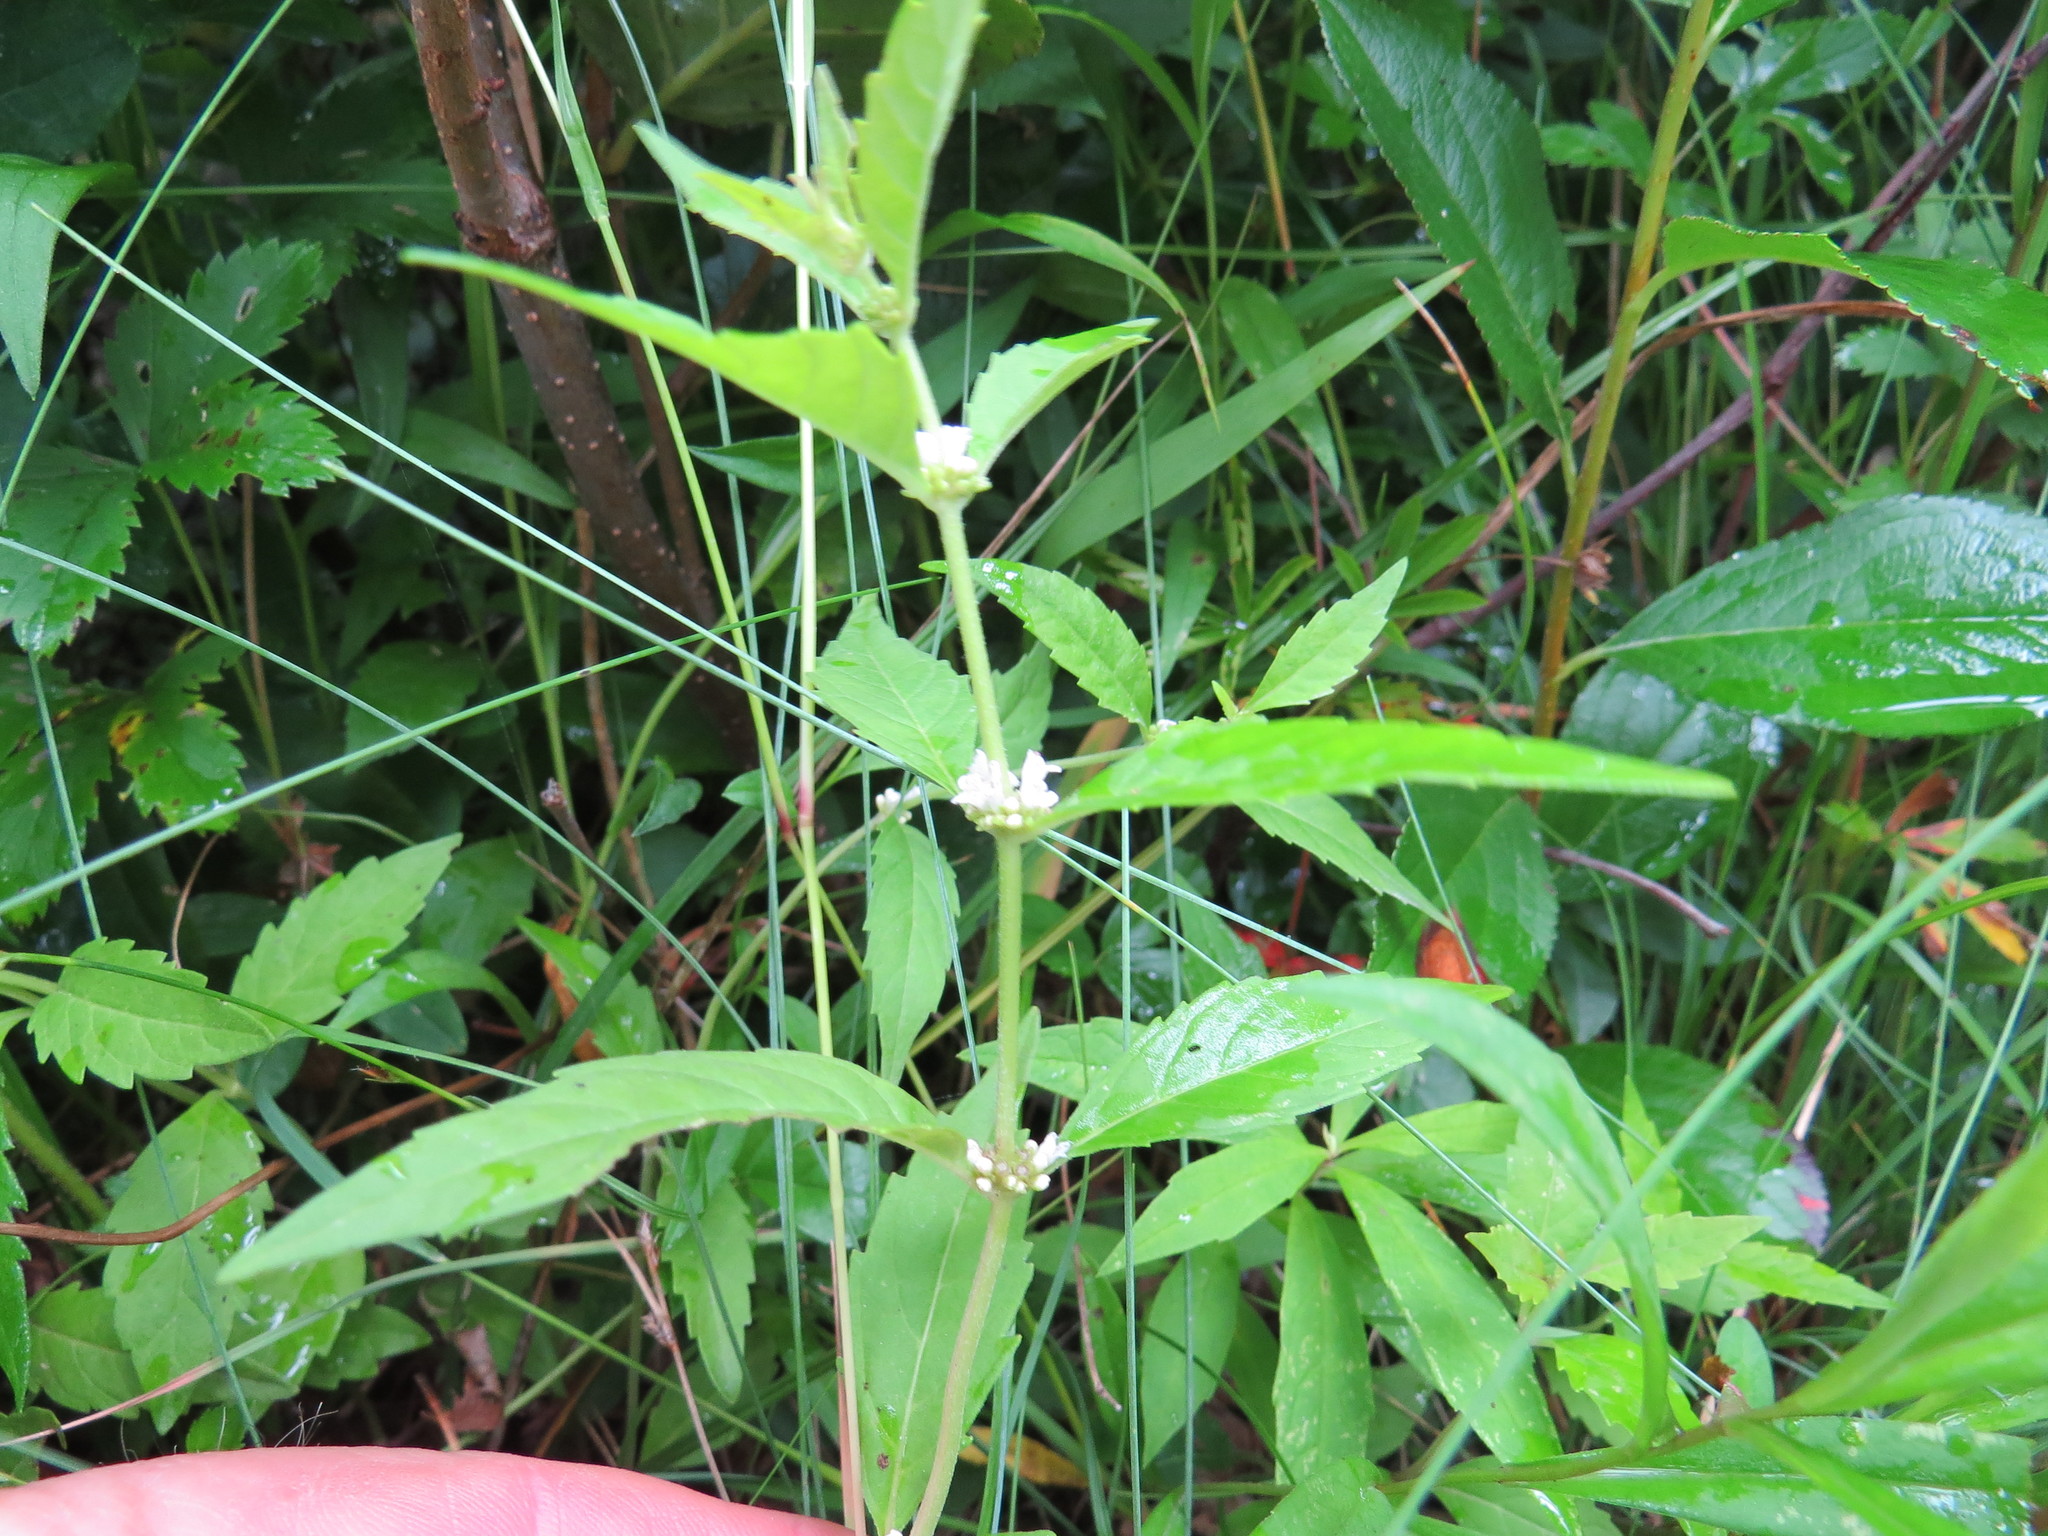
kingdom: Plantae
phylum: Tracheophyta
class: Magnoliopsida
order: Lamiales
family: Lamiaceae
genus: Lycopus
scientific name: Lycopus uniflorus
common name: Northern bugleweed
